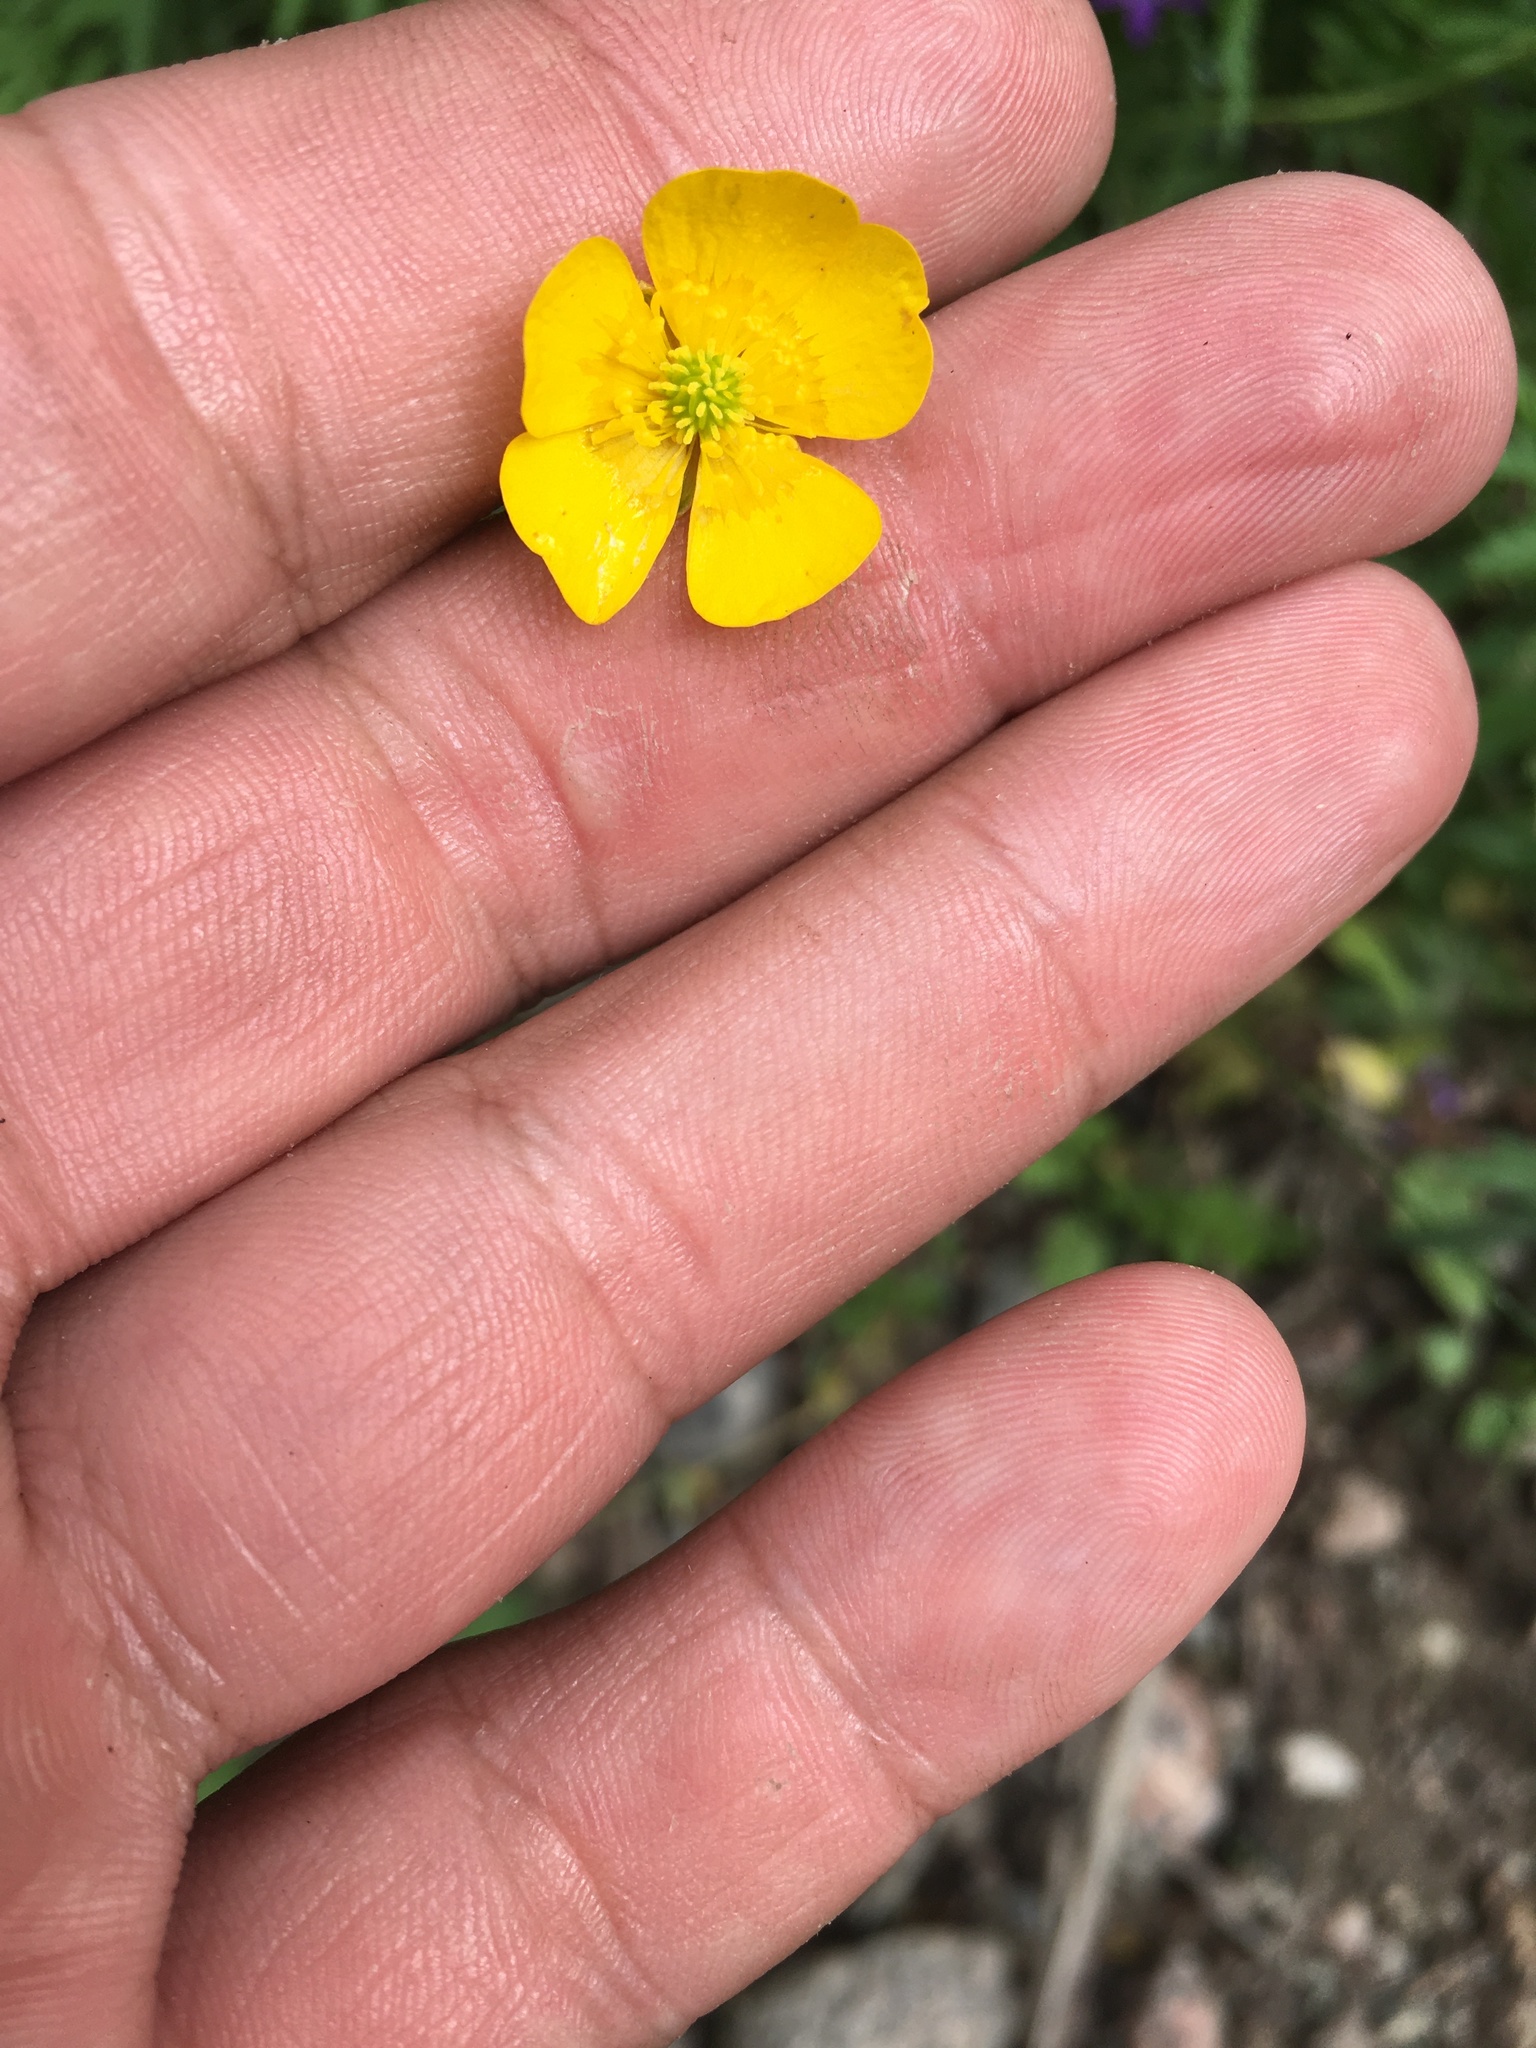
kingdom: Plantae
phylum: Tracheophyta
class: Magnoliopsida
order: Ranunculales
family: Ranunculaceae
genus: Ranunculus
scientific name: Ranunculus acris
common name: Meadow buttercup
